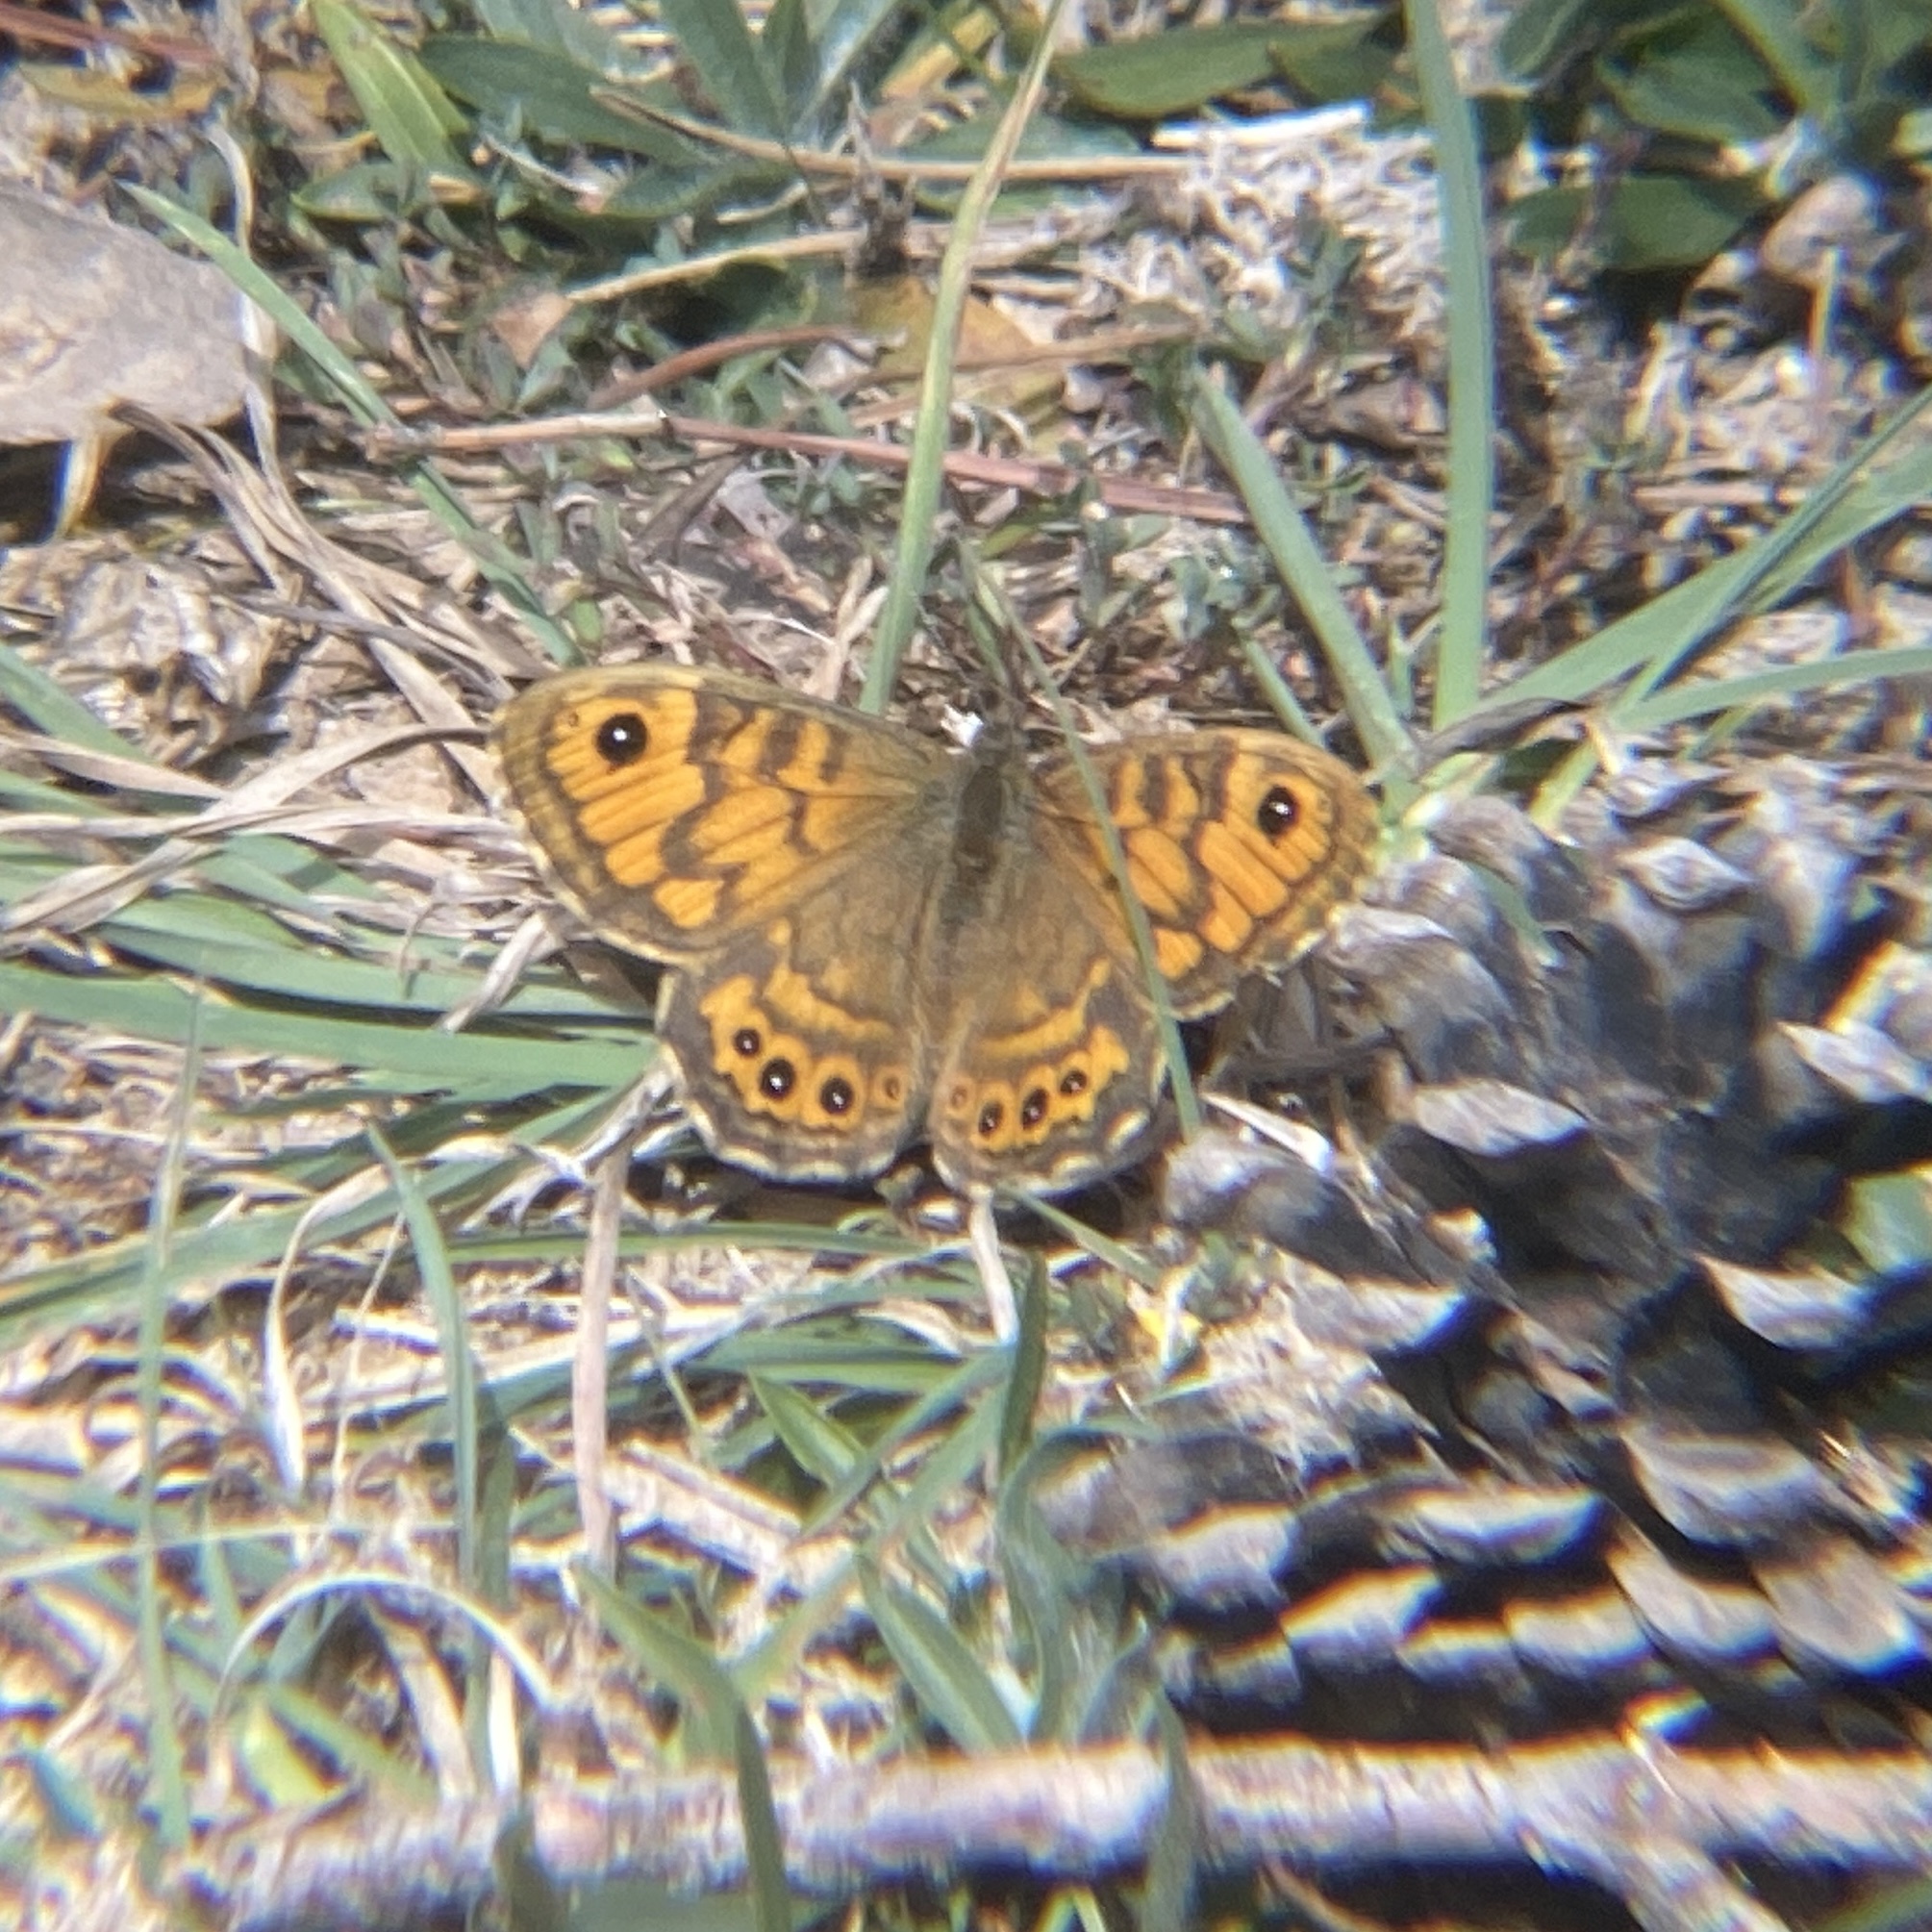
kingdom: Animalia
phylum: Arthropoda
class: Insecta
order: Lepidoptera
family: Nymphalidae
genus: Pararge
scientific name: Pararge Lasiommata megera
